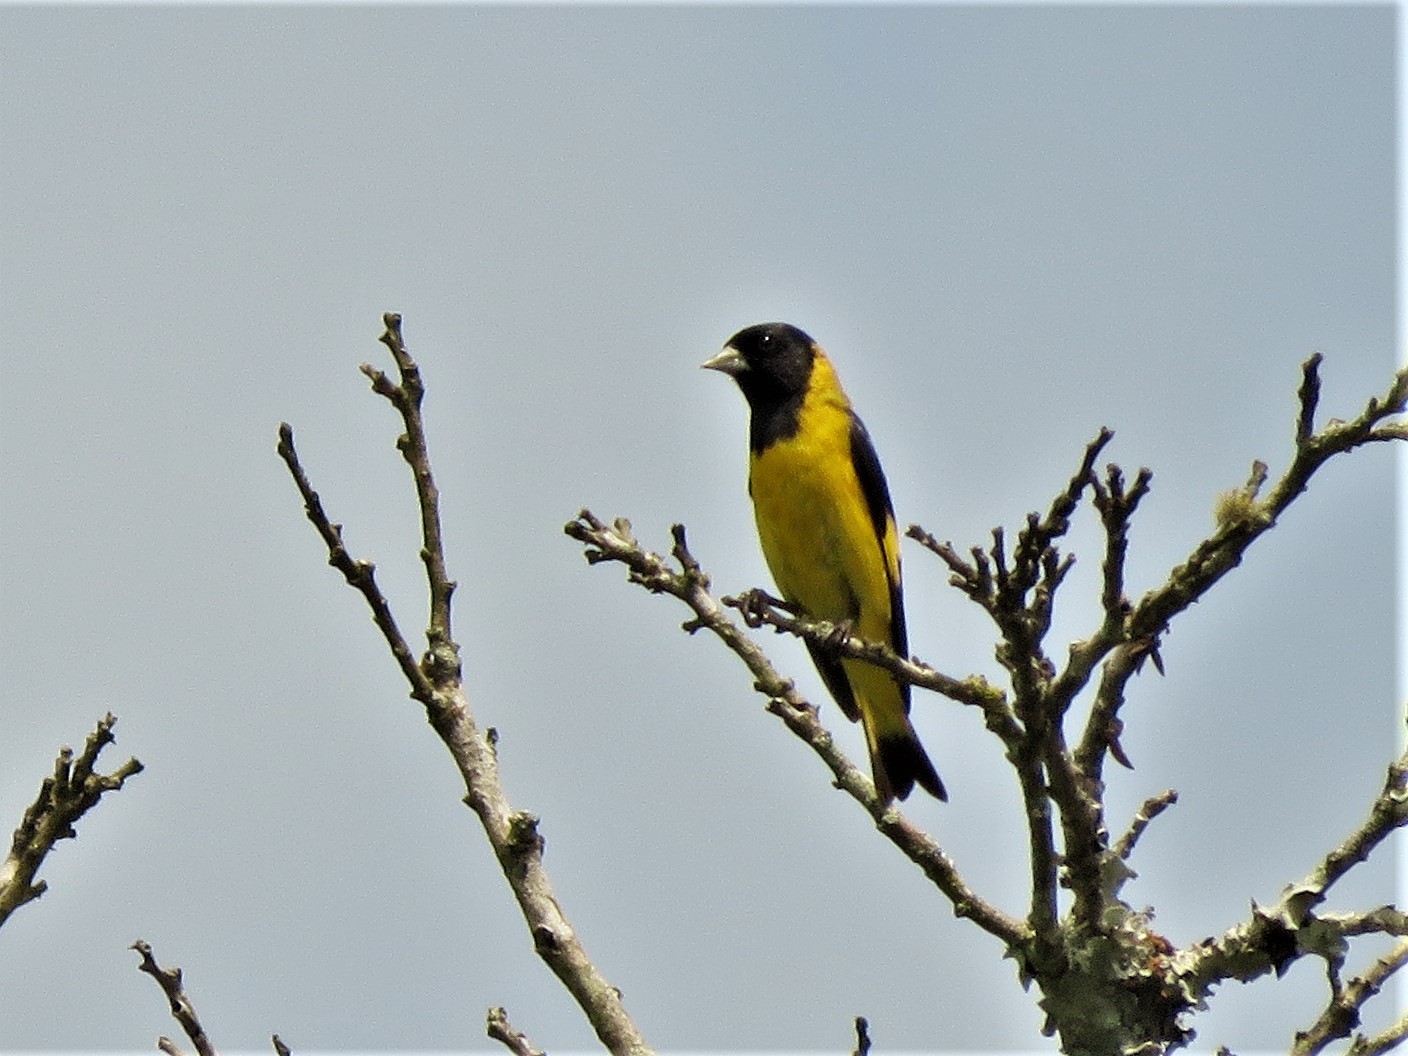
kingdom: Animalia
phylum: Chordata
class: Aves
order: Passeriformes
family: Fringillidae
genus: Spinus
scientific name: Spinus notatus
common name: Black-headed siskin
